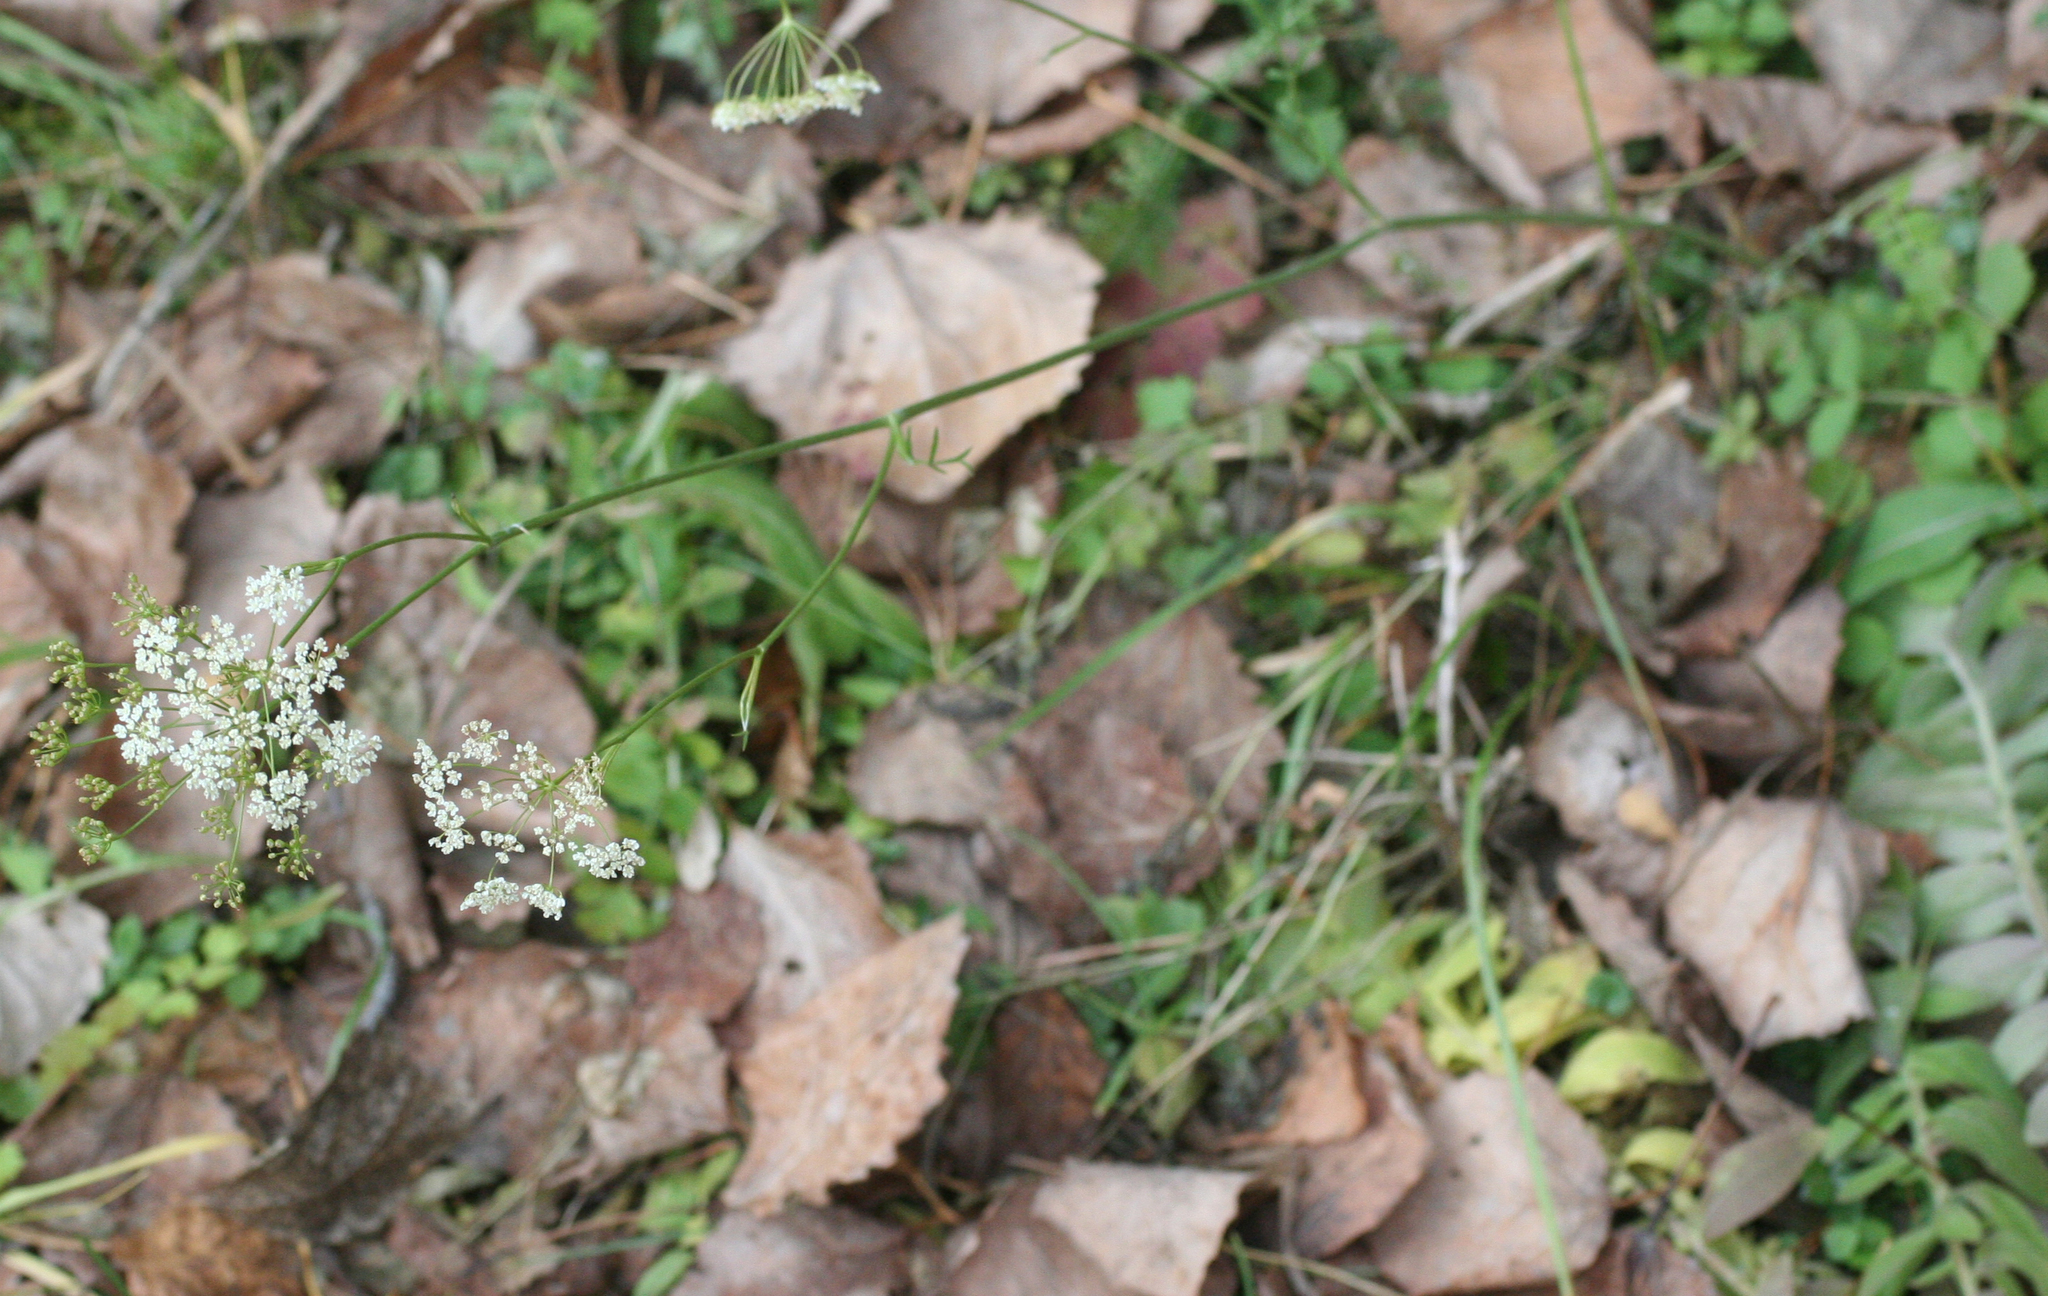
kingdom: Plantae
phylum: Tracheophyta
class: Magnoliopsida
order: Apiales
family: Apiaceae
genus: Pimpinella
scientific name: Pimpinella saxifraga
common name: Burnet-saxifrage
